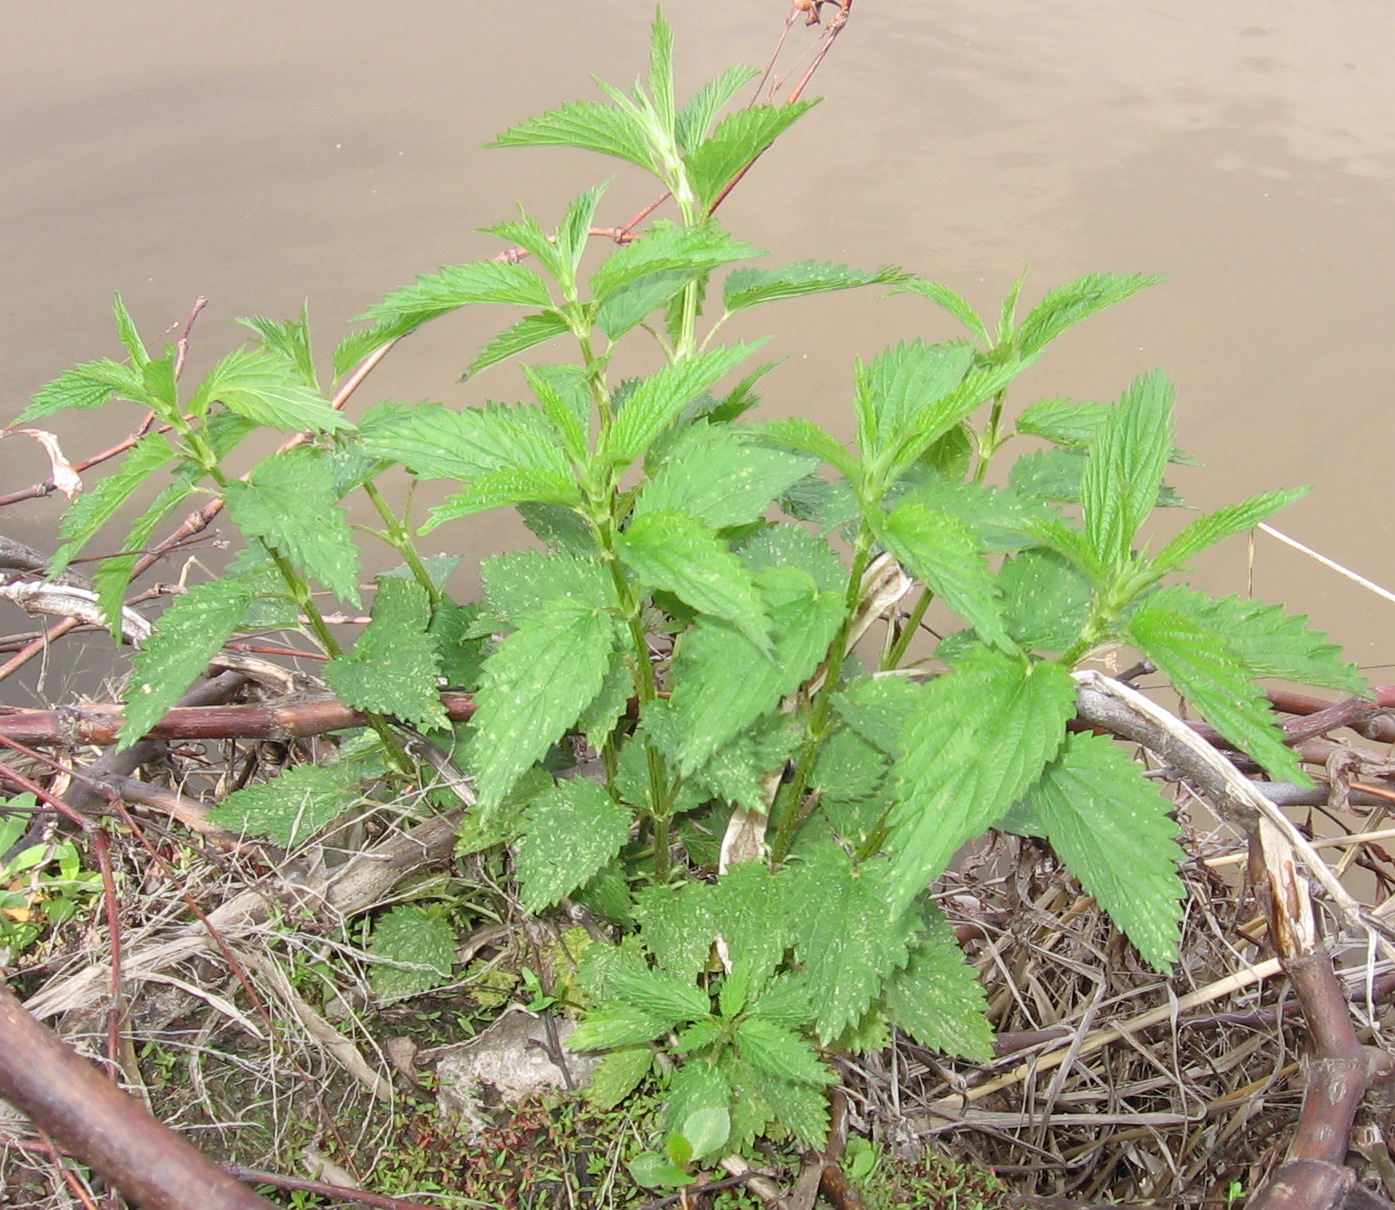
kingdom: Plantae
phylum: Tracheophyta
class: Magnoliopsida
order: Rosales
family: Urticaceae
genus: Urtica
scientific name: Urtica dioica
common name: Common nettle
